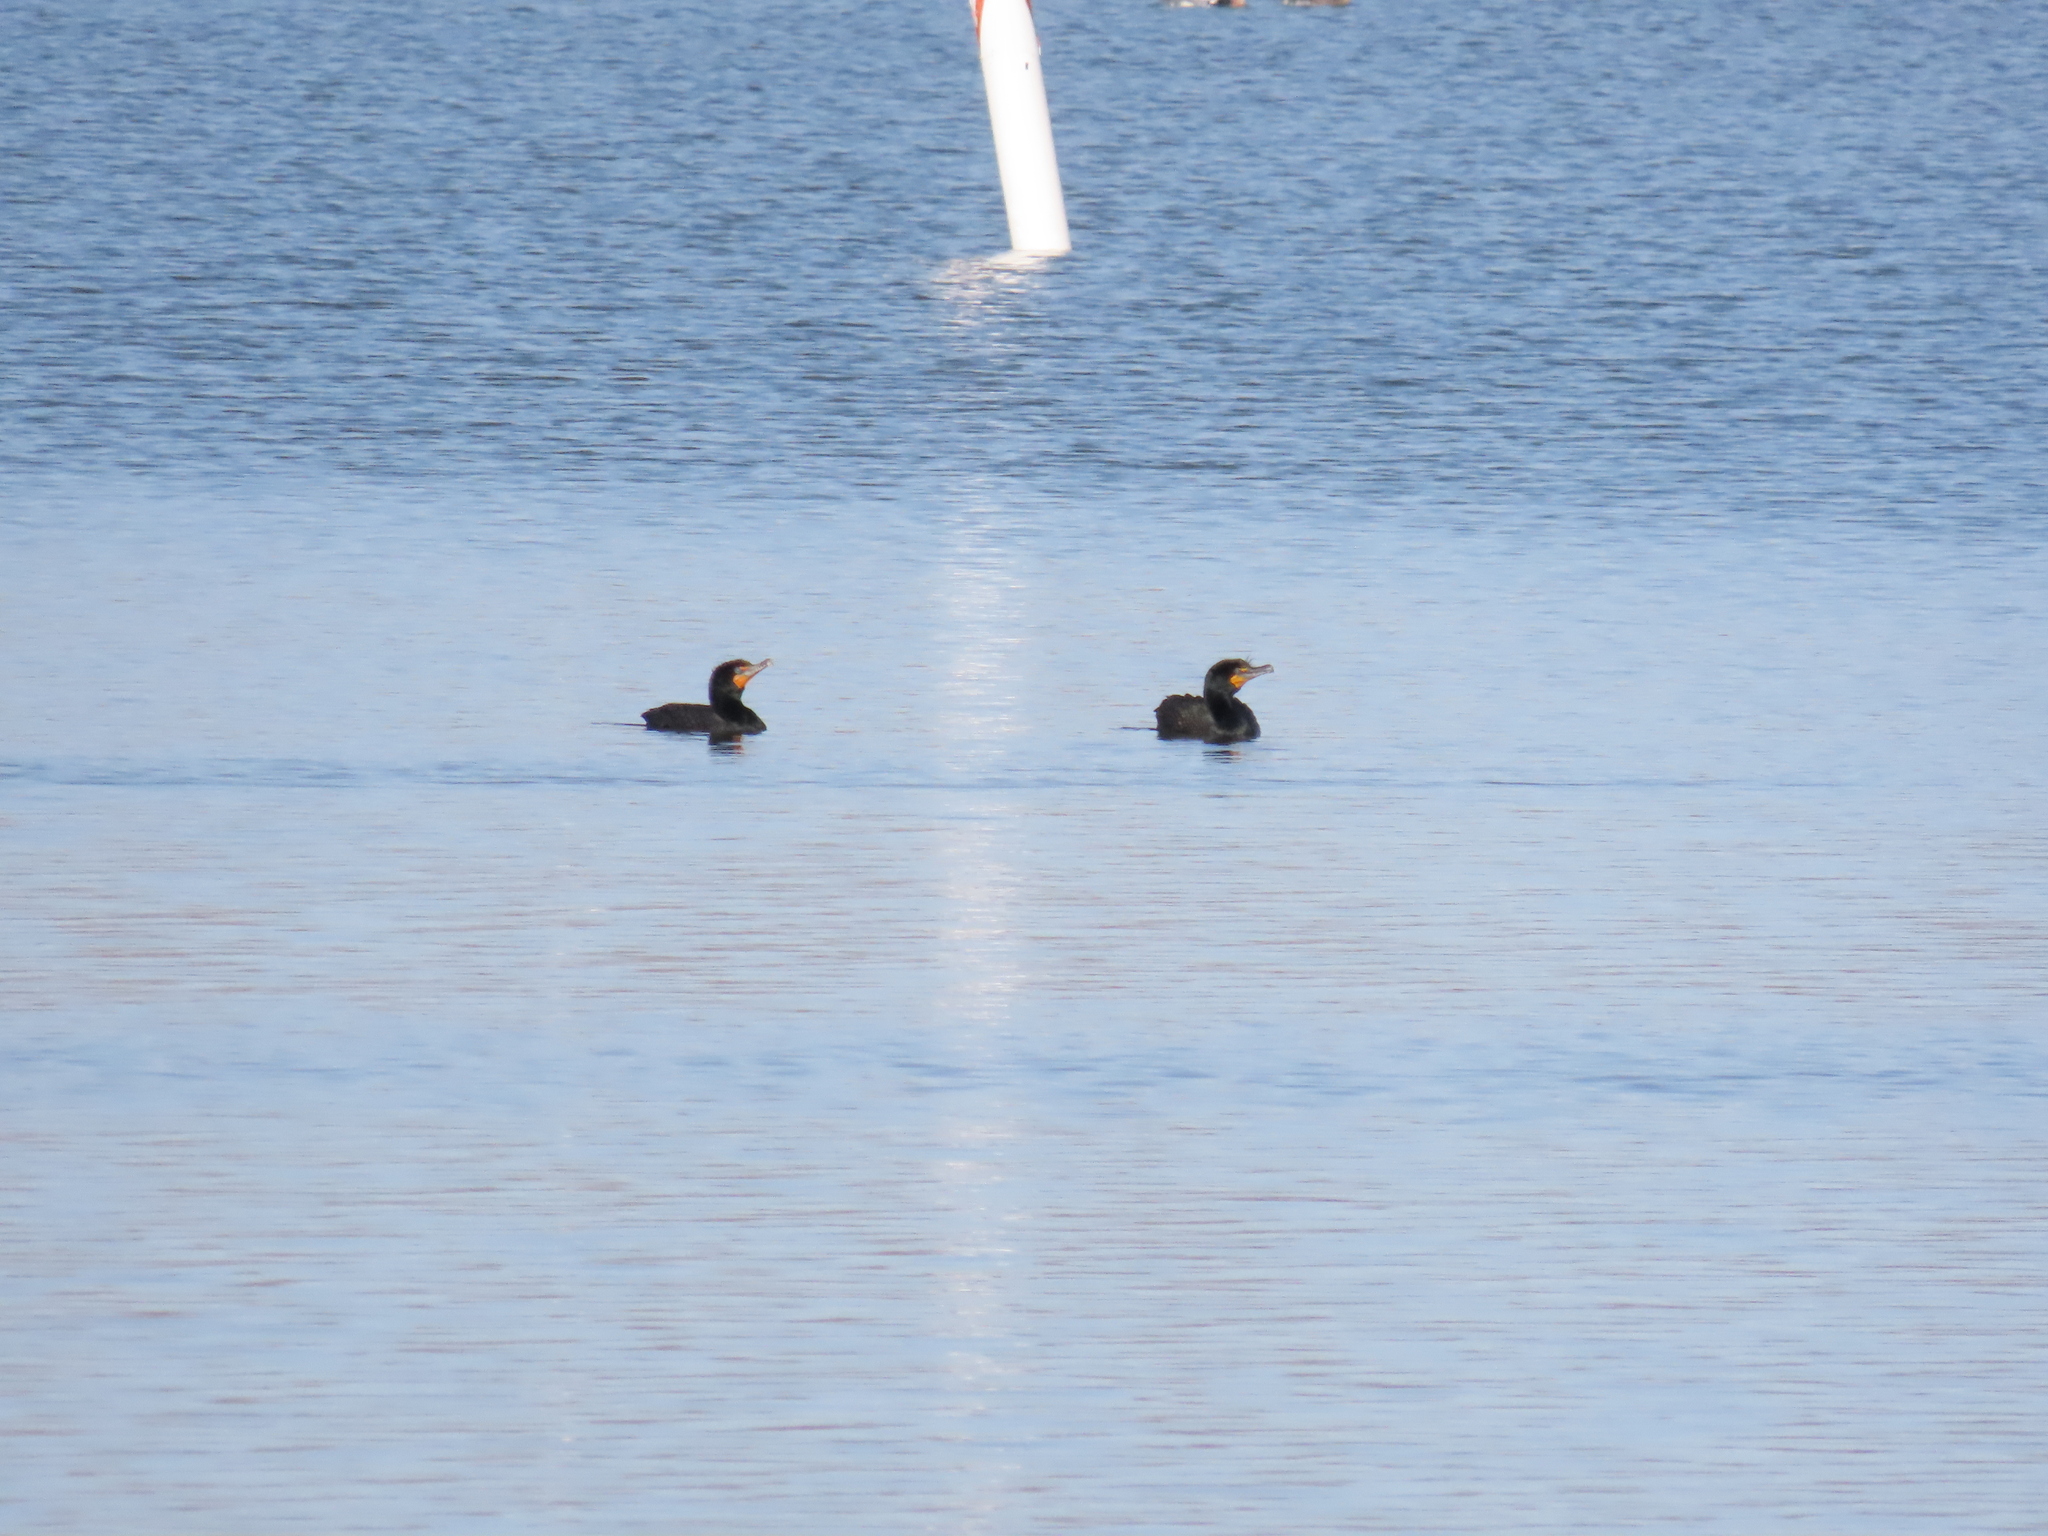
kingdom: Animalia
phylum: Chordata
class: Aves
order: Suliformes
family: Phalacrocoracidae
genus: Phalacrocorax
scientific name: Phalacrocorax auritus
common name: Double-crested cormorant
